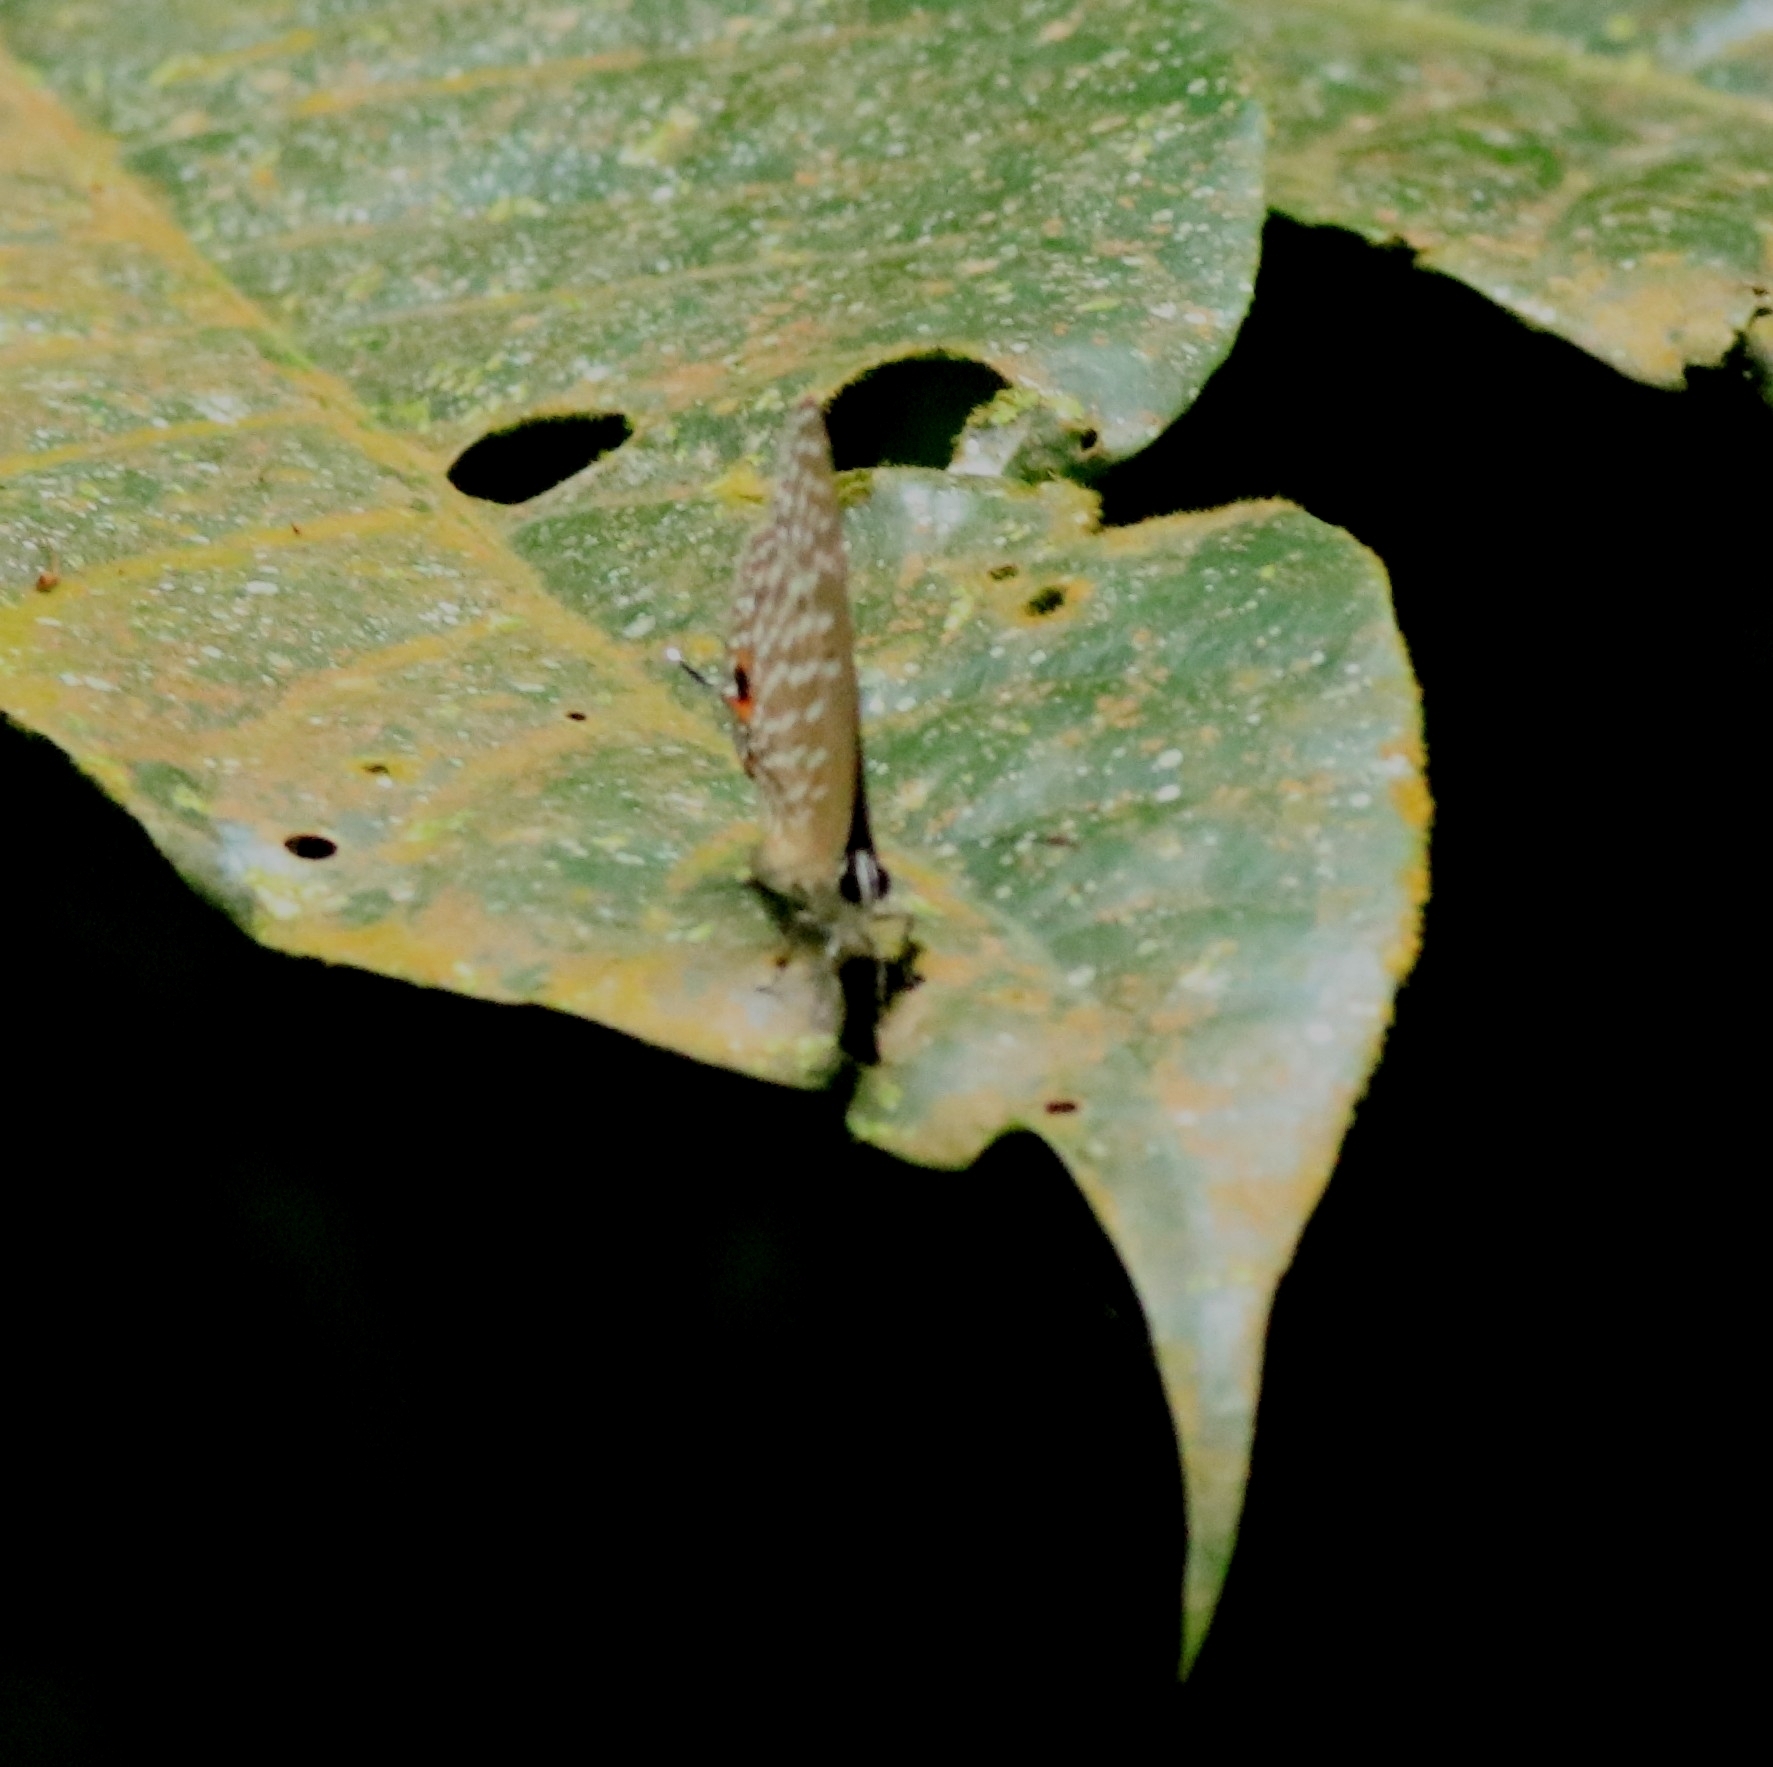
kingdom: Animalia
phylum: Arthropoda
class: Insecta
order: Lepidoptera
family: Lycaenidae
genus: Jamides
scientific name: Jamides alecto
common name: Metallic cerulean
